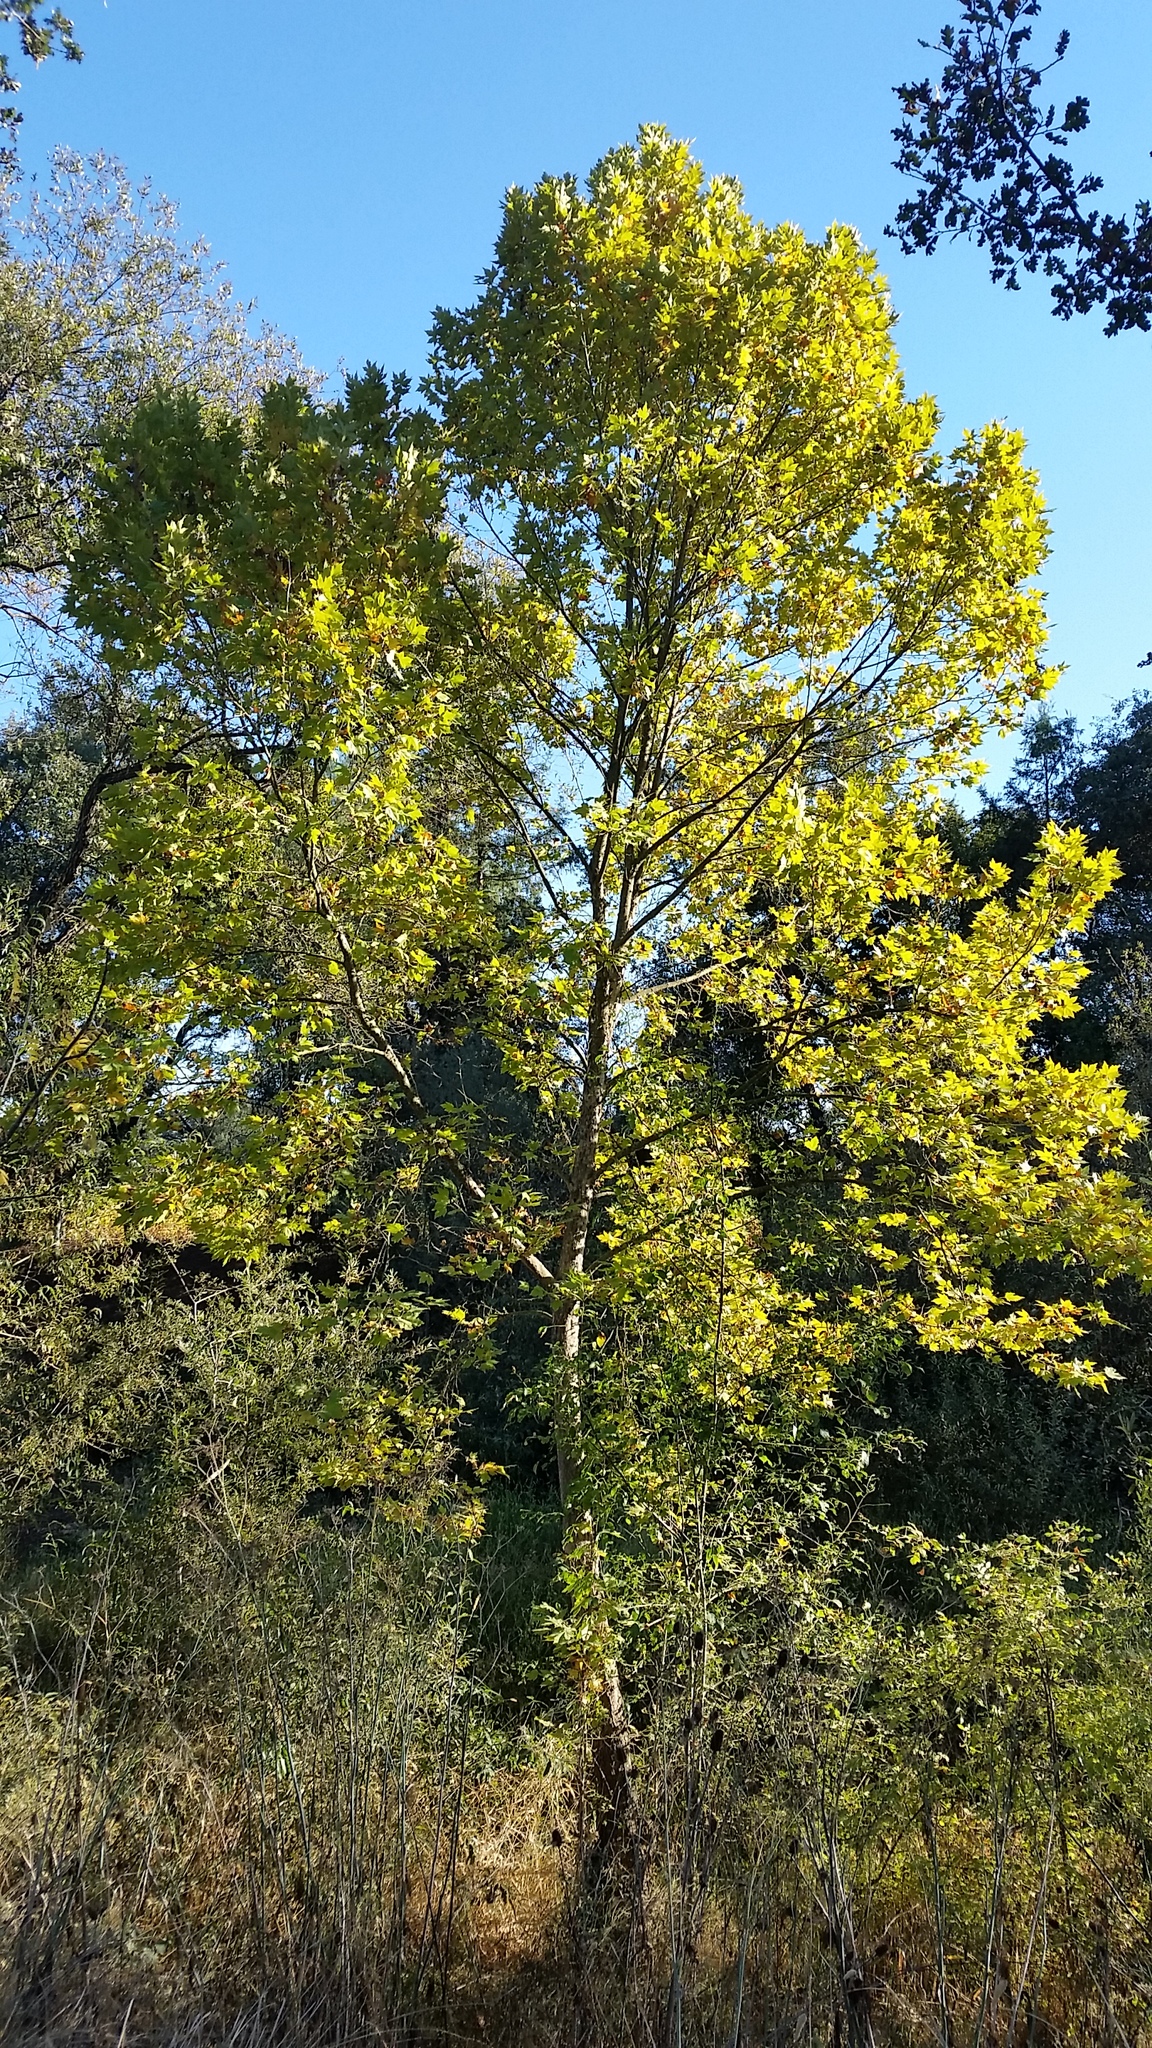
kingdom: Plantae
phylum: Tracheophyta
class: Magnoliopsida
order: Proteales
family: Platanaceae
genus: Platanus
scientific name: Platanus racemosa
